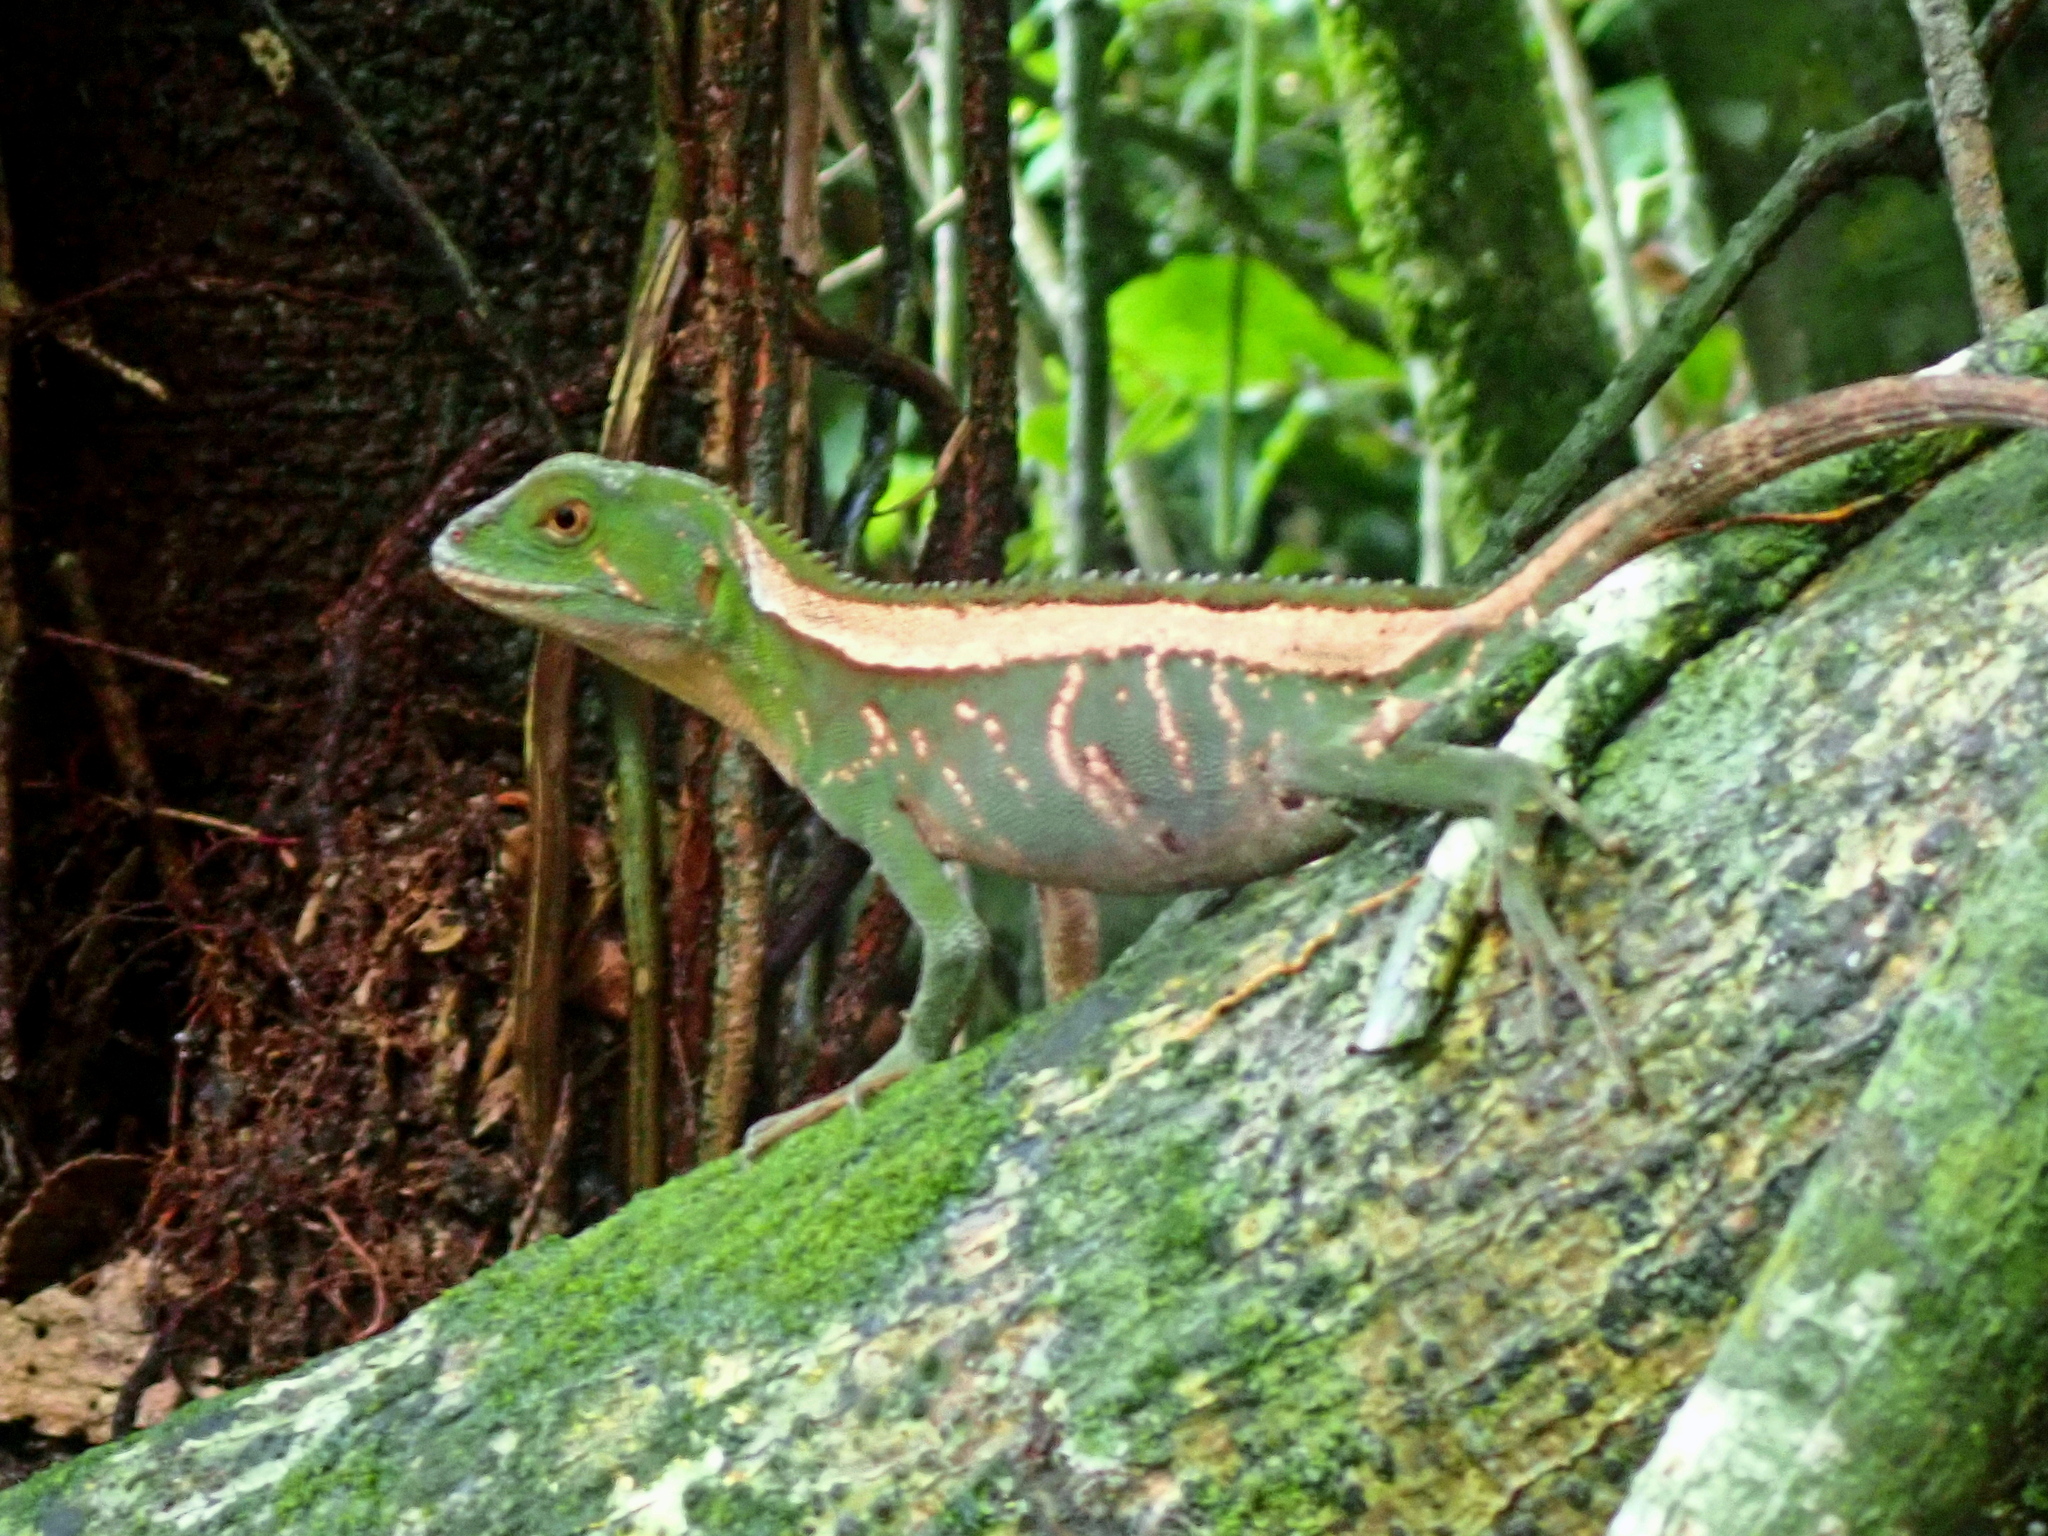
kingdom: Animalia
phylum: Chordata
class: Squamata
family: Leiosauridae
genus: Enyalius
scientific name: Enyalius iheringii
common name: Ihering's fathead anole
